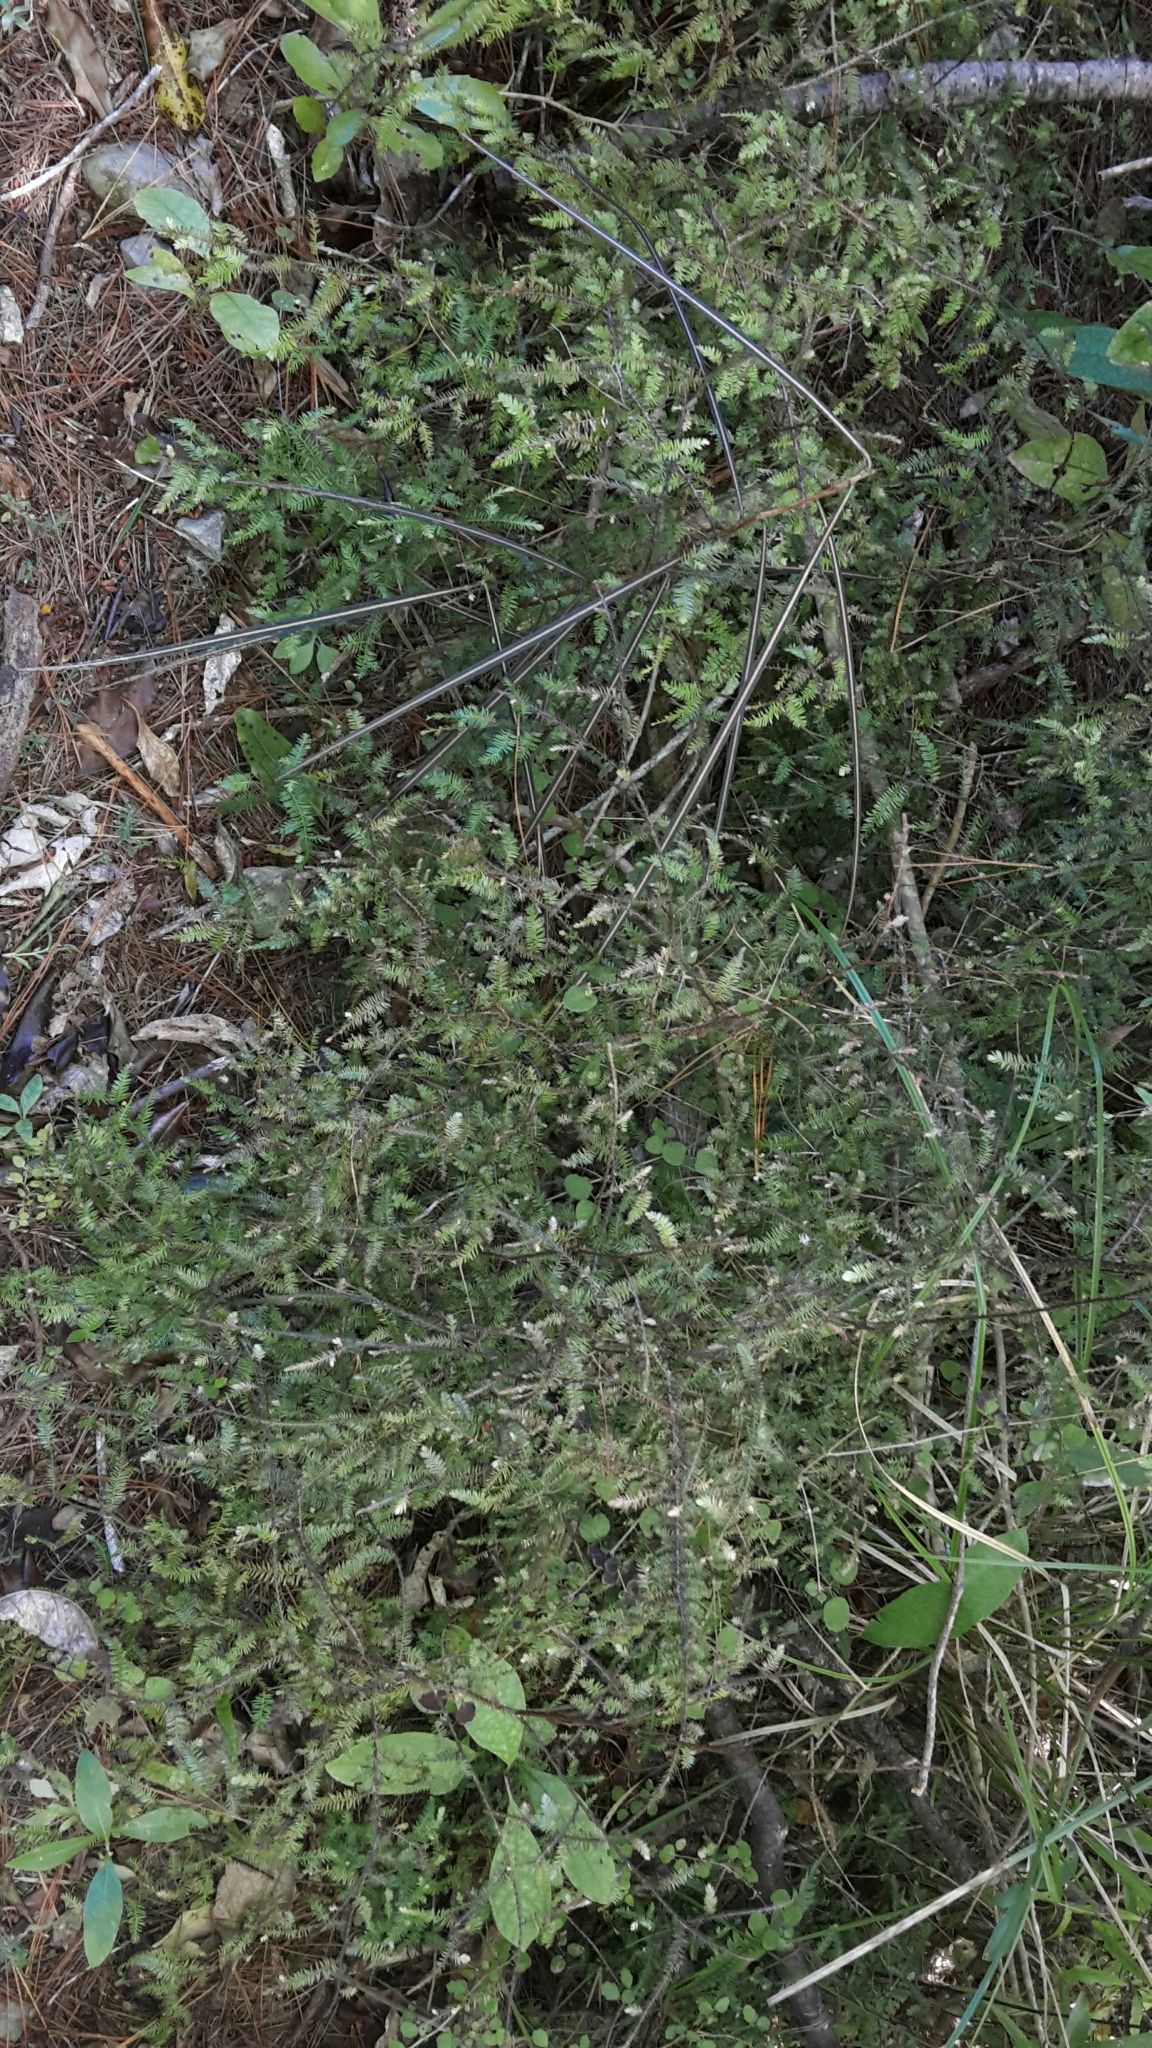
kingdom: Plantae
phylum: Tracheophyta
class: Pinopsida
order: Pinales
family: Podocarpaceae
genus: Dacrycarpus
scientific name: Dacrycarpus dacrydioides
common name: White pine
